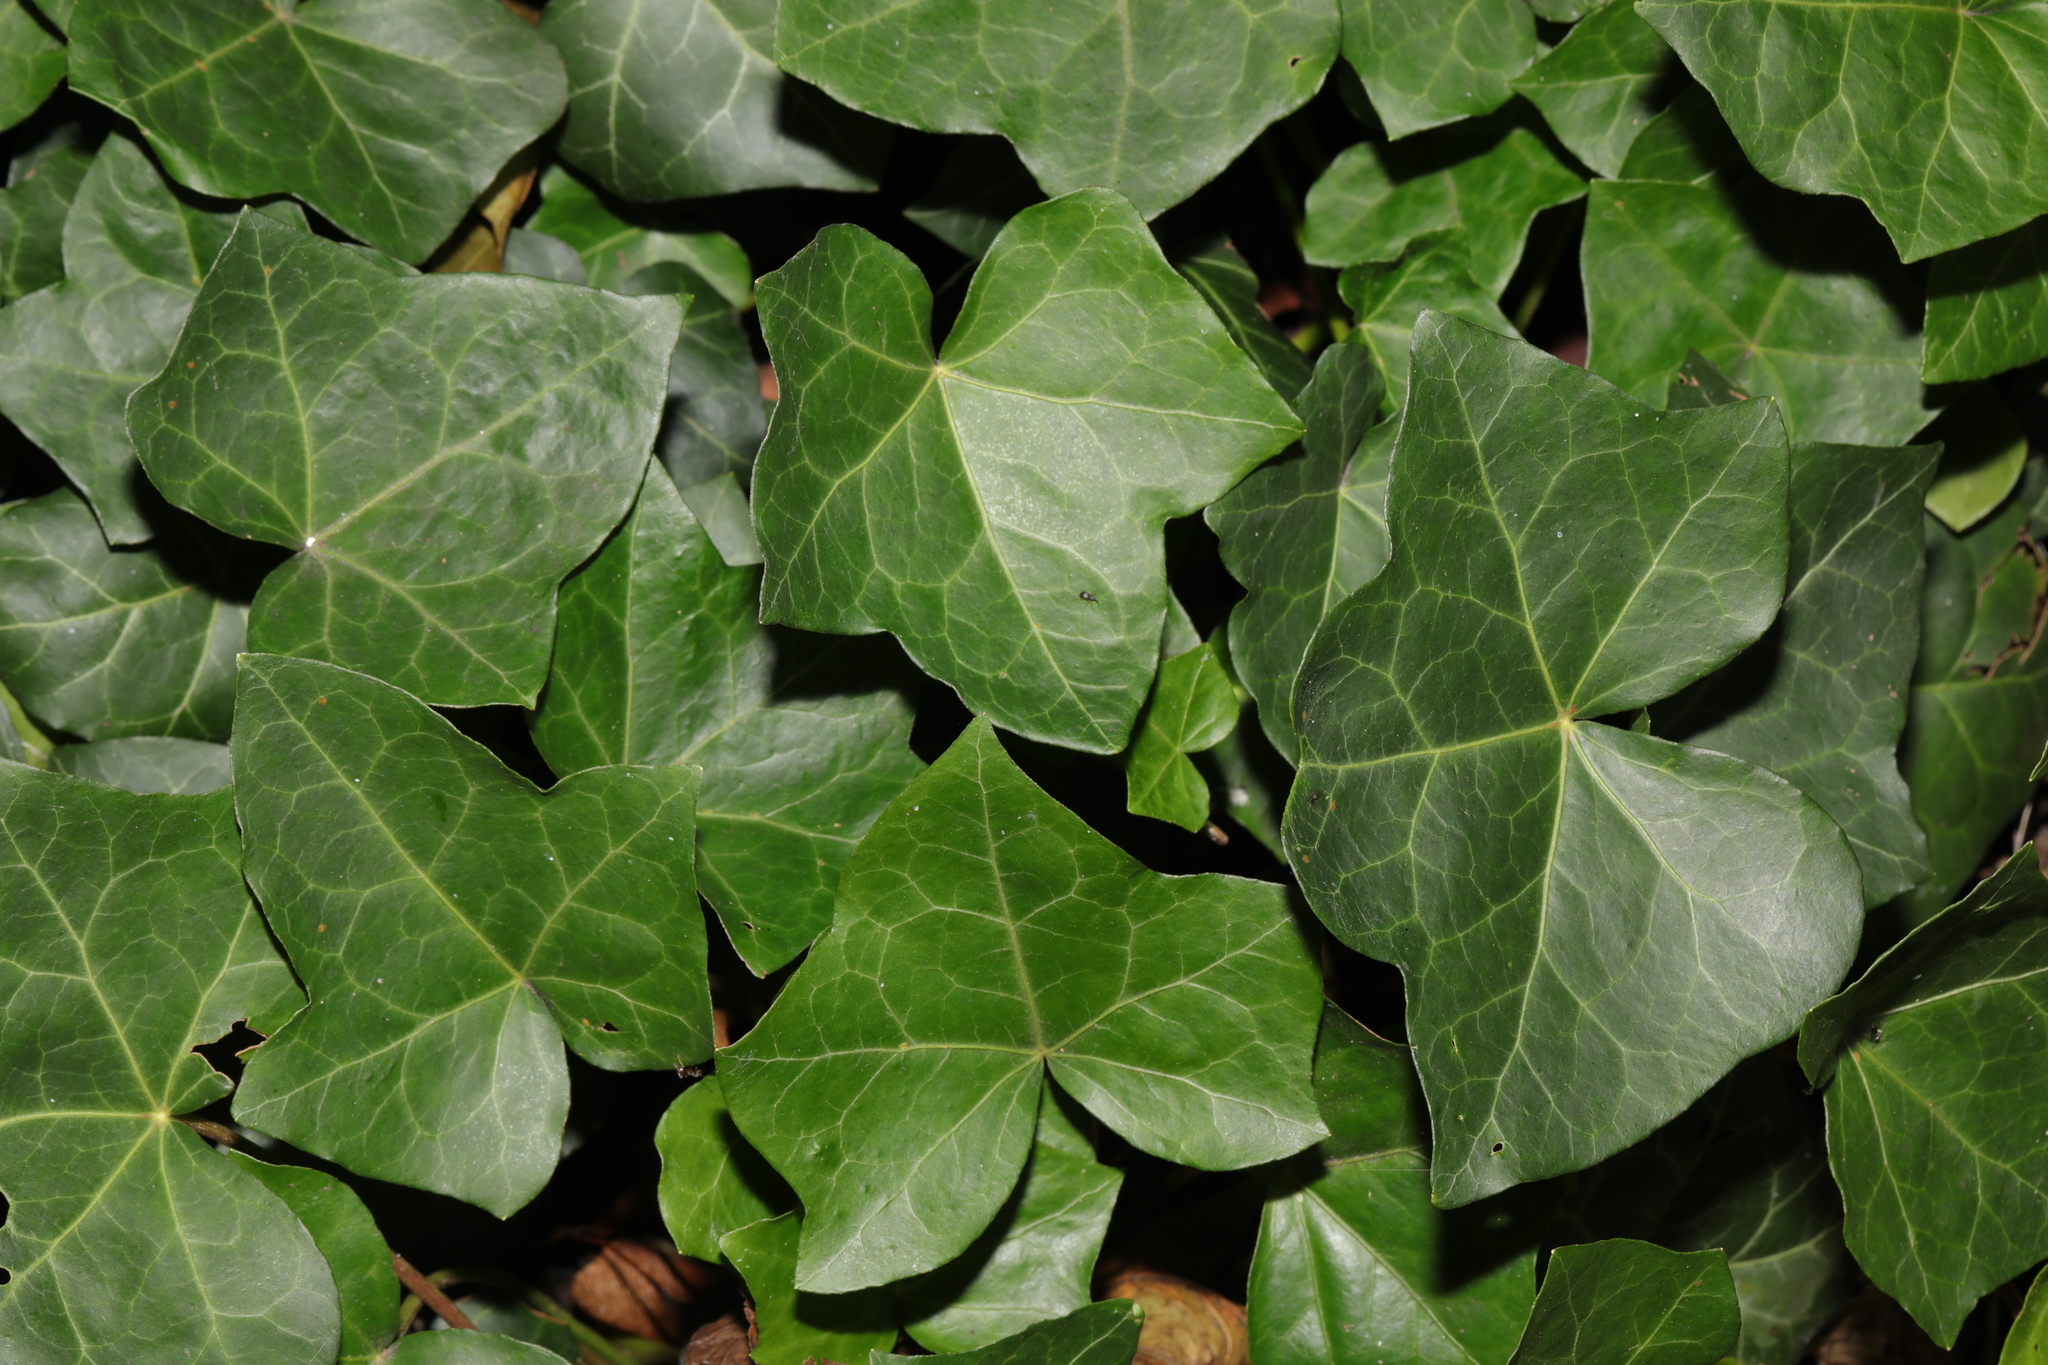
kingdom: Plantae
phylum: Tracheophyta
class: Magnoliopsida
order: Apiales
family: Araliaceae
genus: Hedera
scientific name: Hedera helix
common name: Ivy
